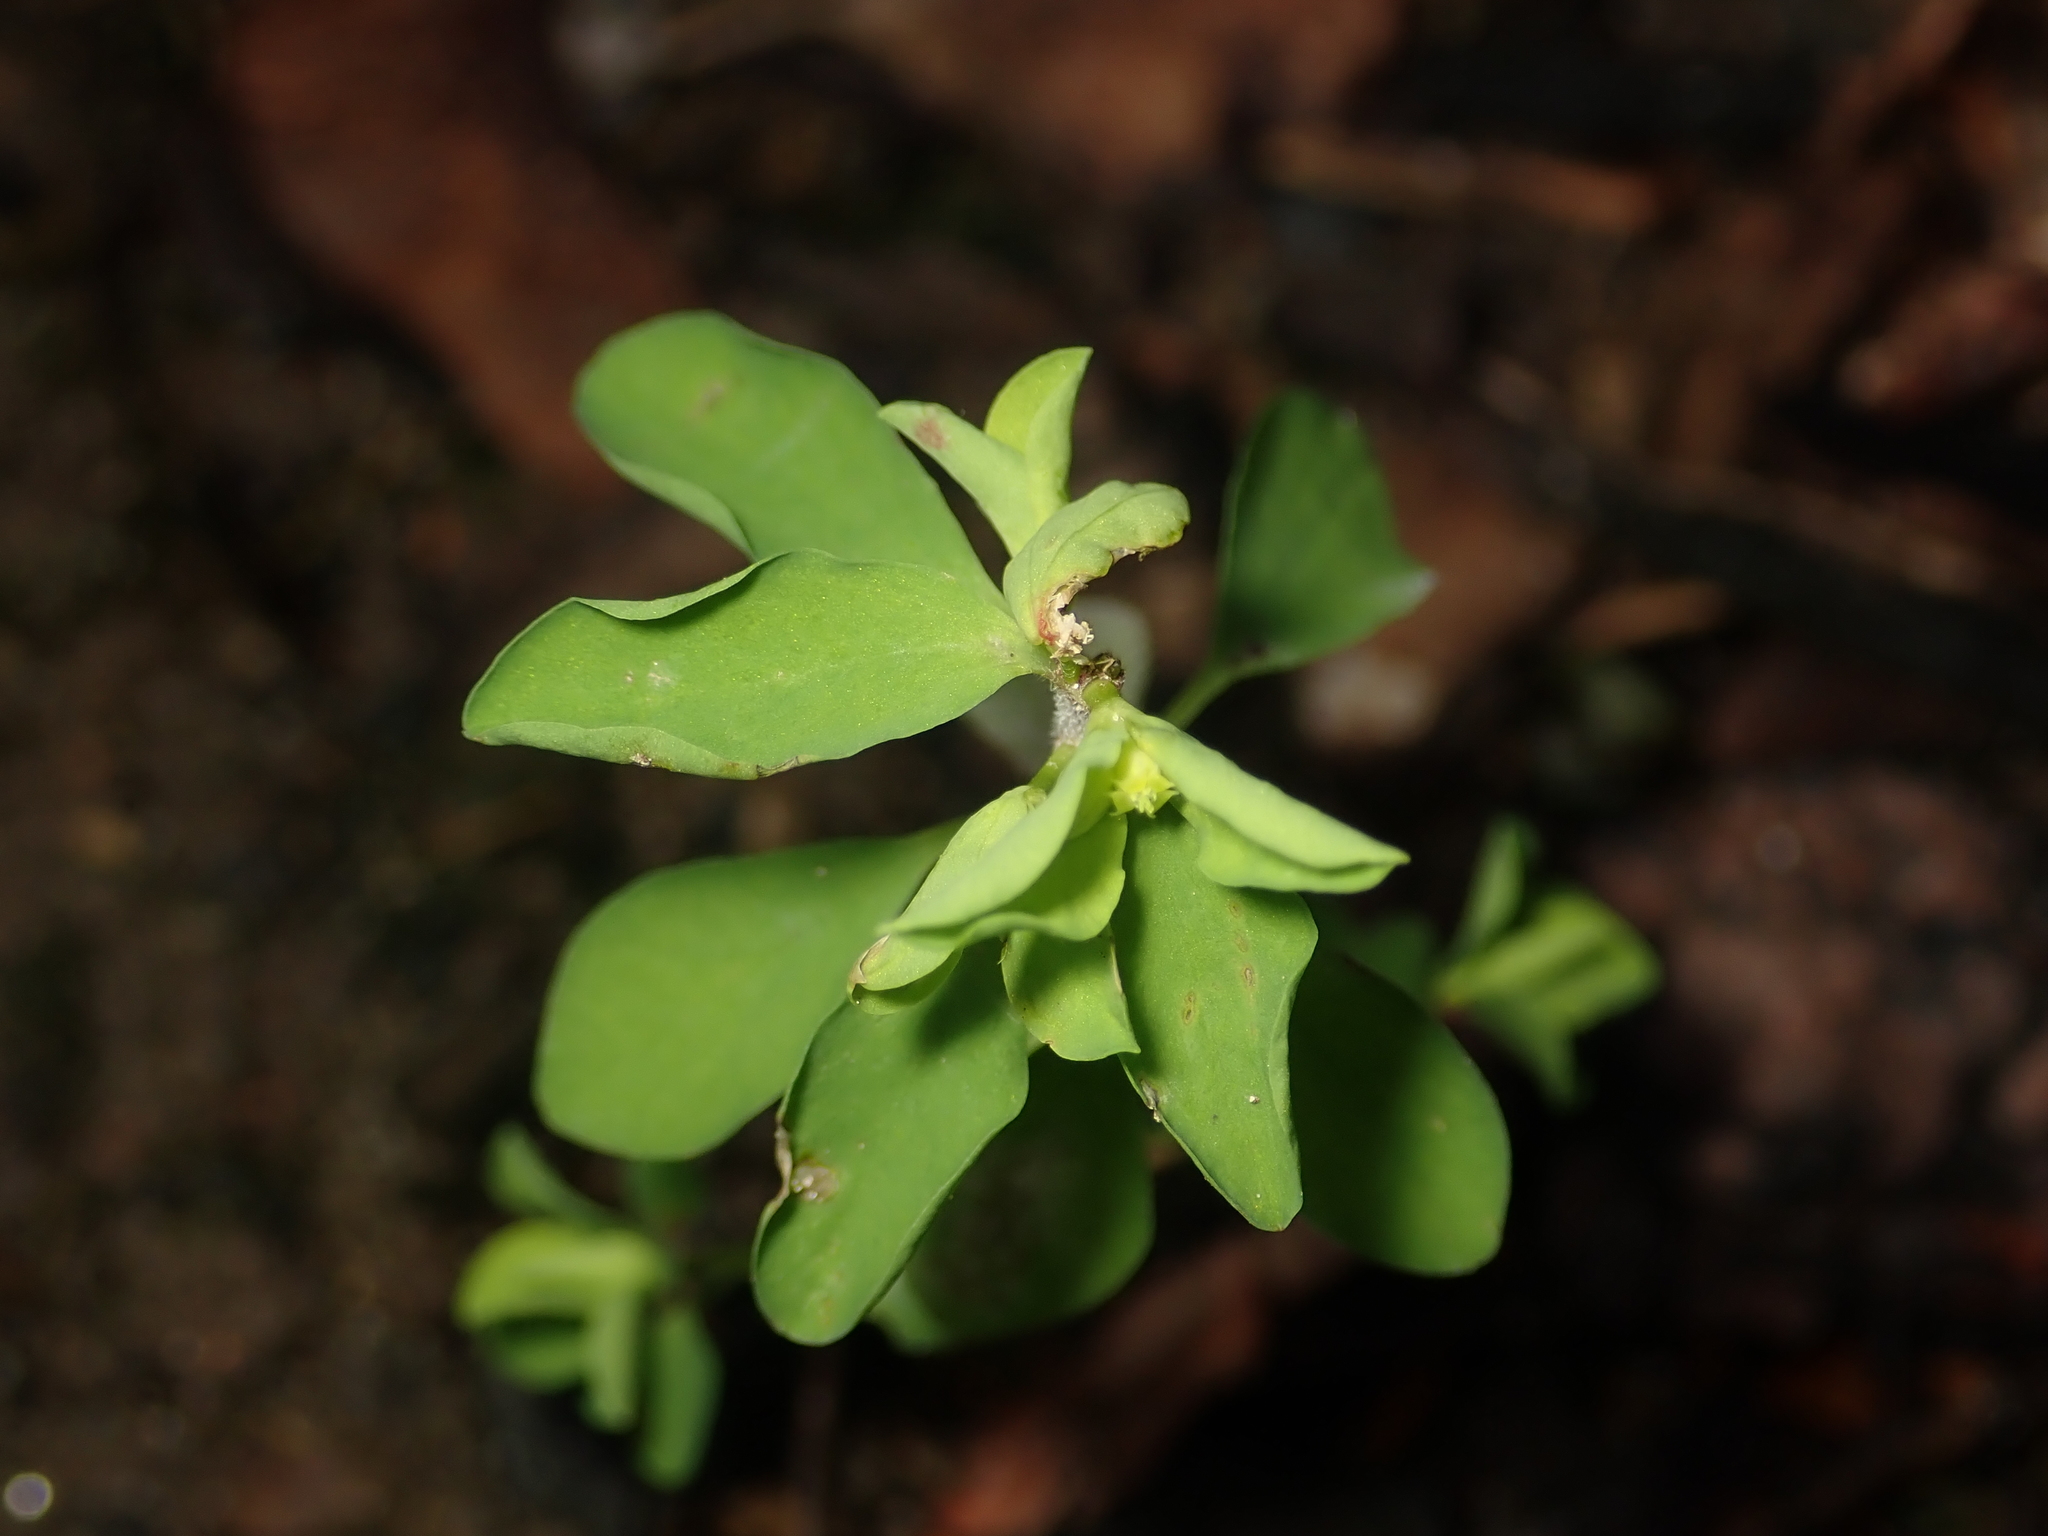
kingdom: Plantae
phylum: Tracheophyta
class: Magnoliopsida
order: Malpighiales
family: Euphorbiaceae
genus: Euphorbia
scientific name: Euphorbia peplus
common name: Petty spurge
